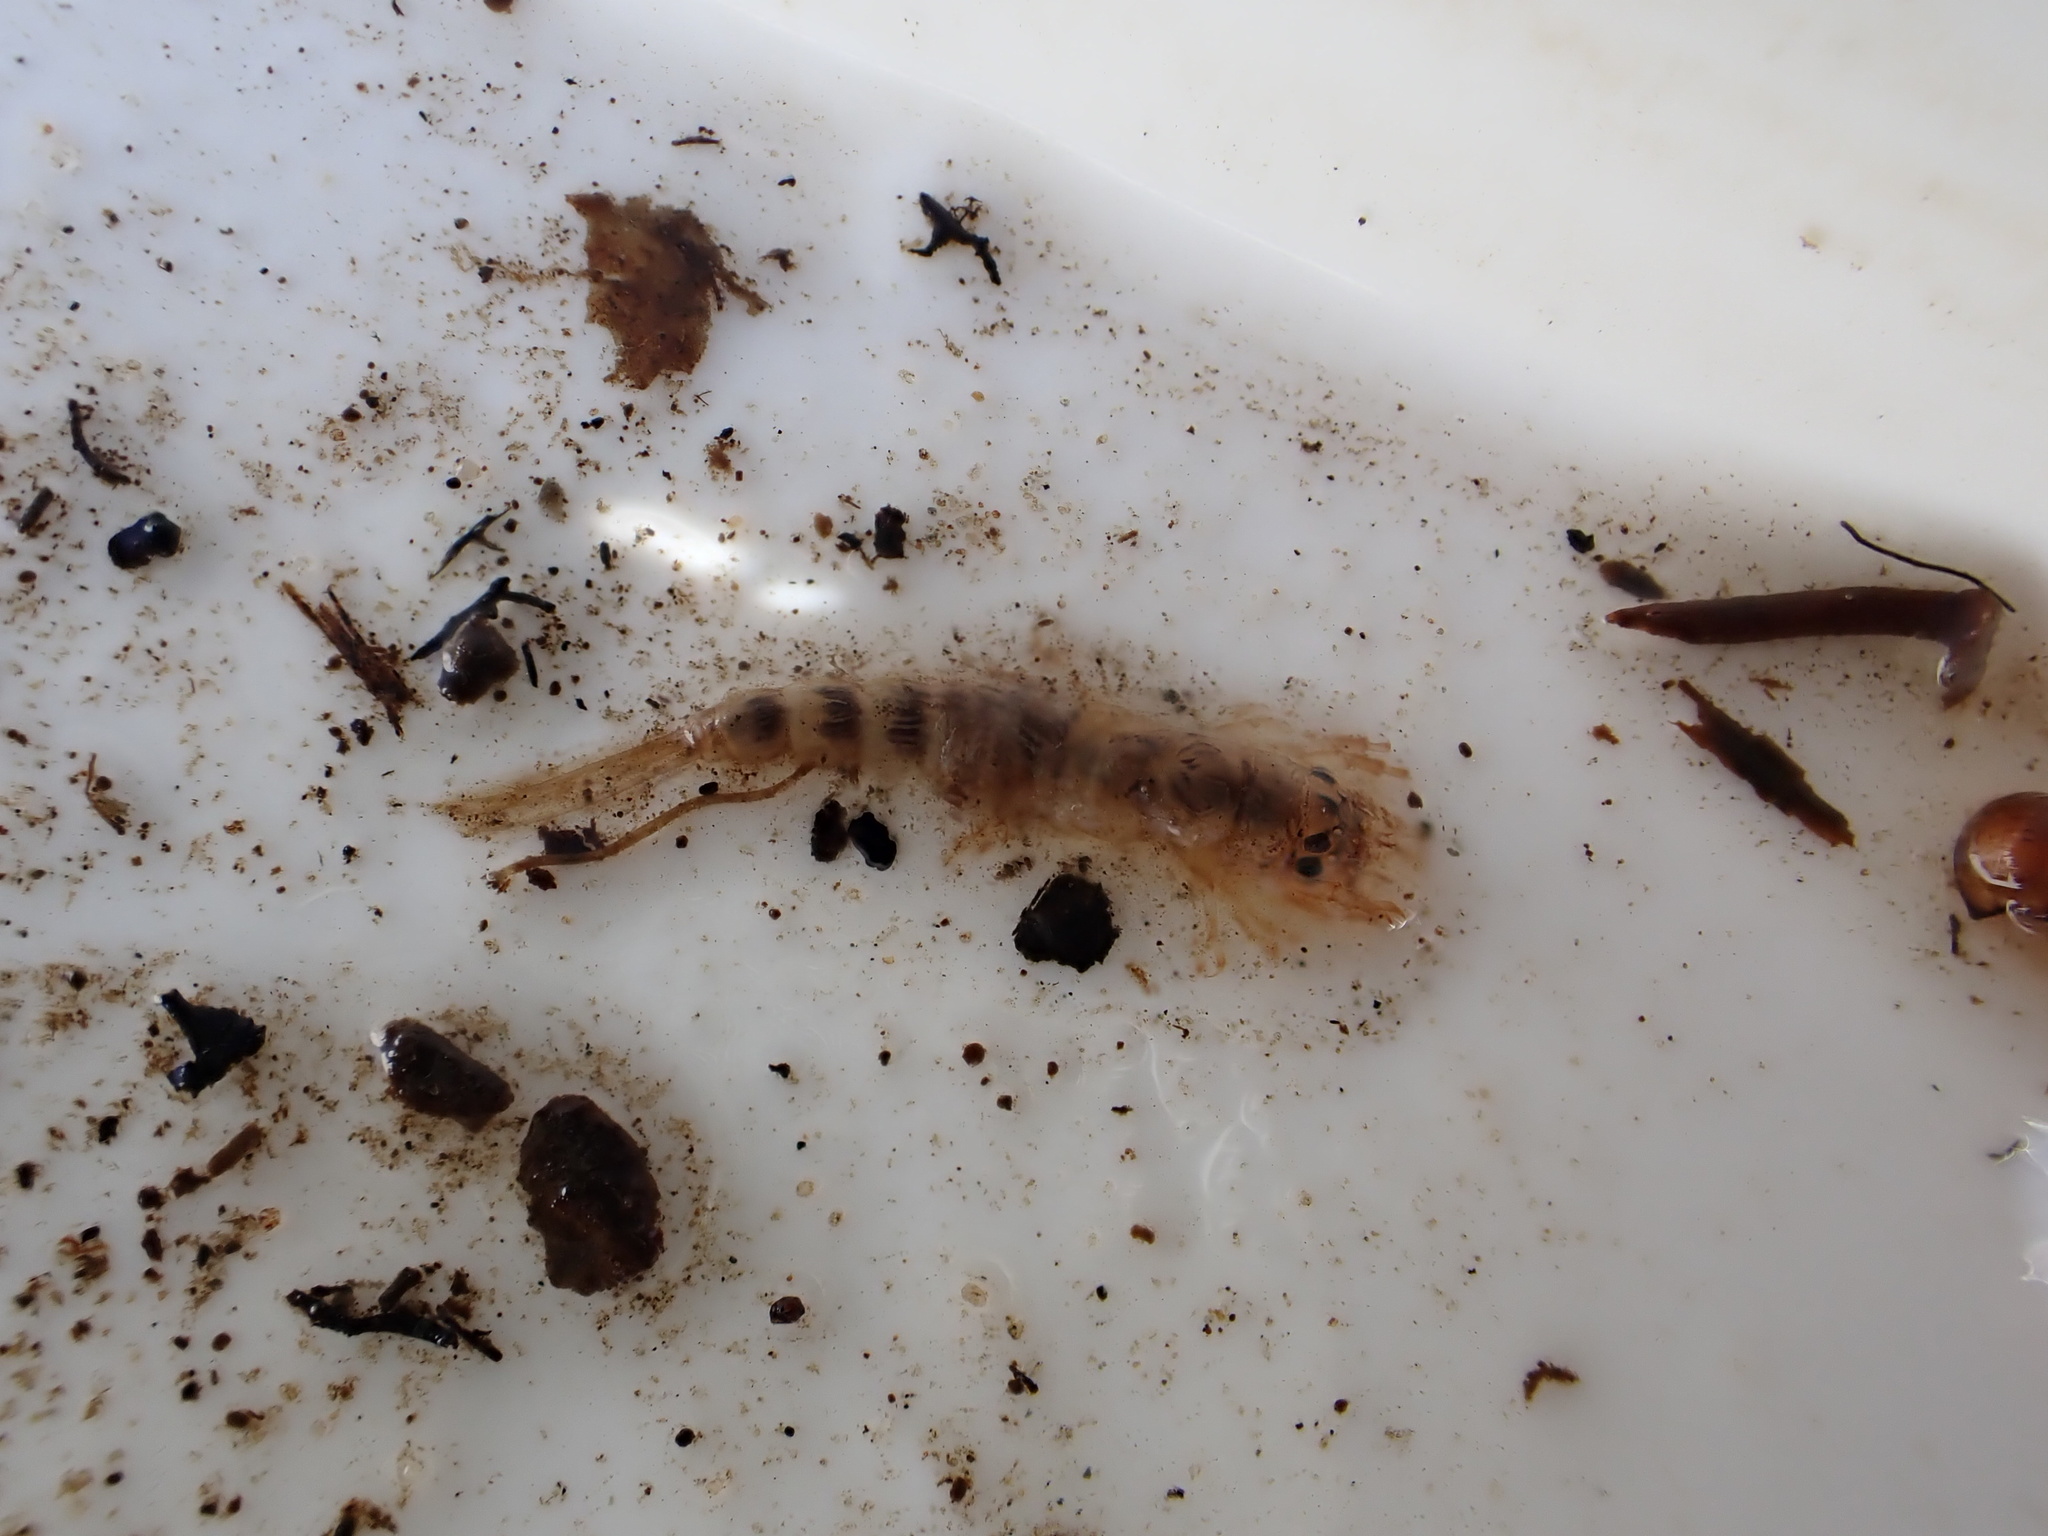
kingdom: Animalia
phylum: Arthropoda
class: Insecta
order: Ephemeroptera
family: Ephemeridae
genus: Ephemera
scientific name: Ephemera danica
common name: Green dun
